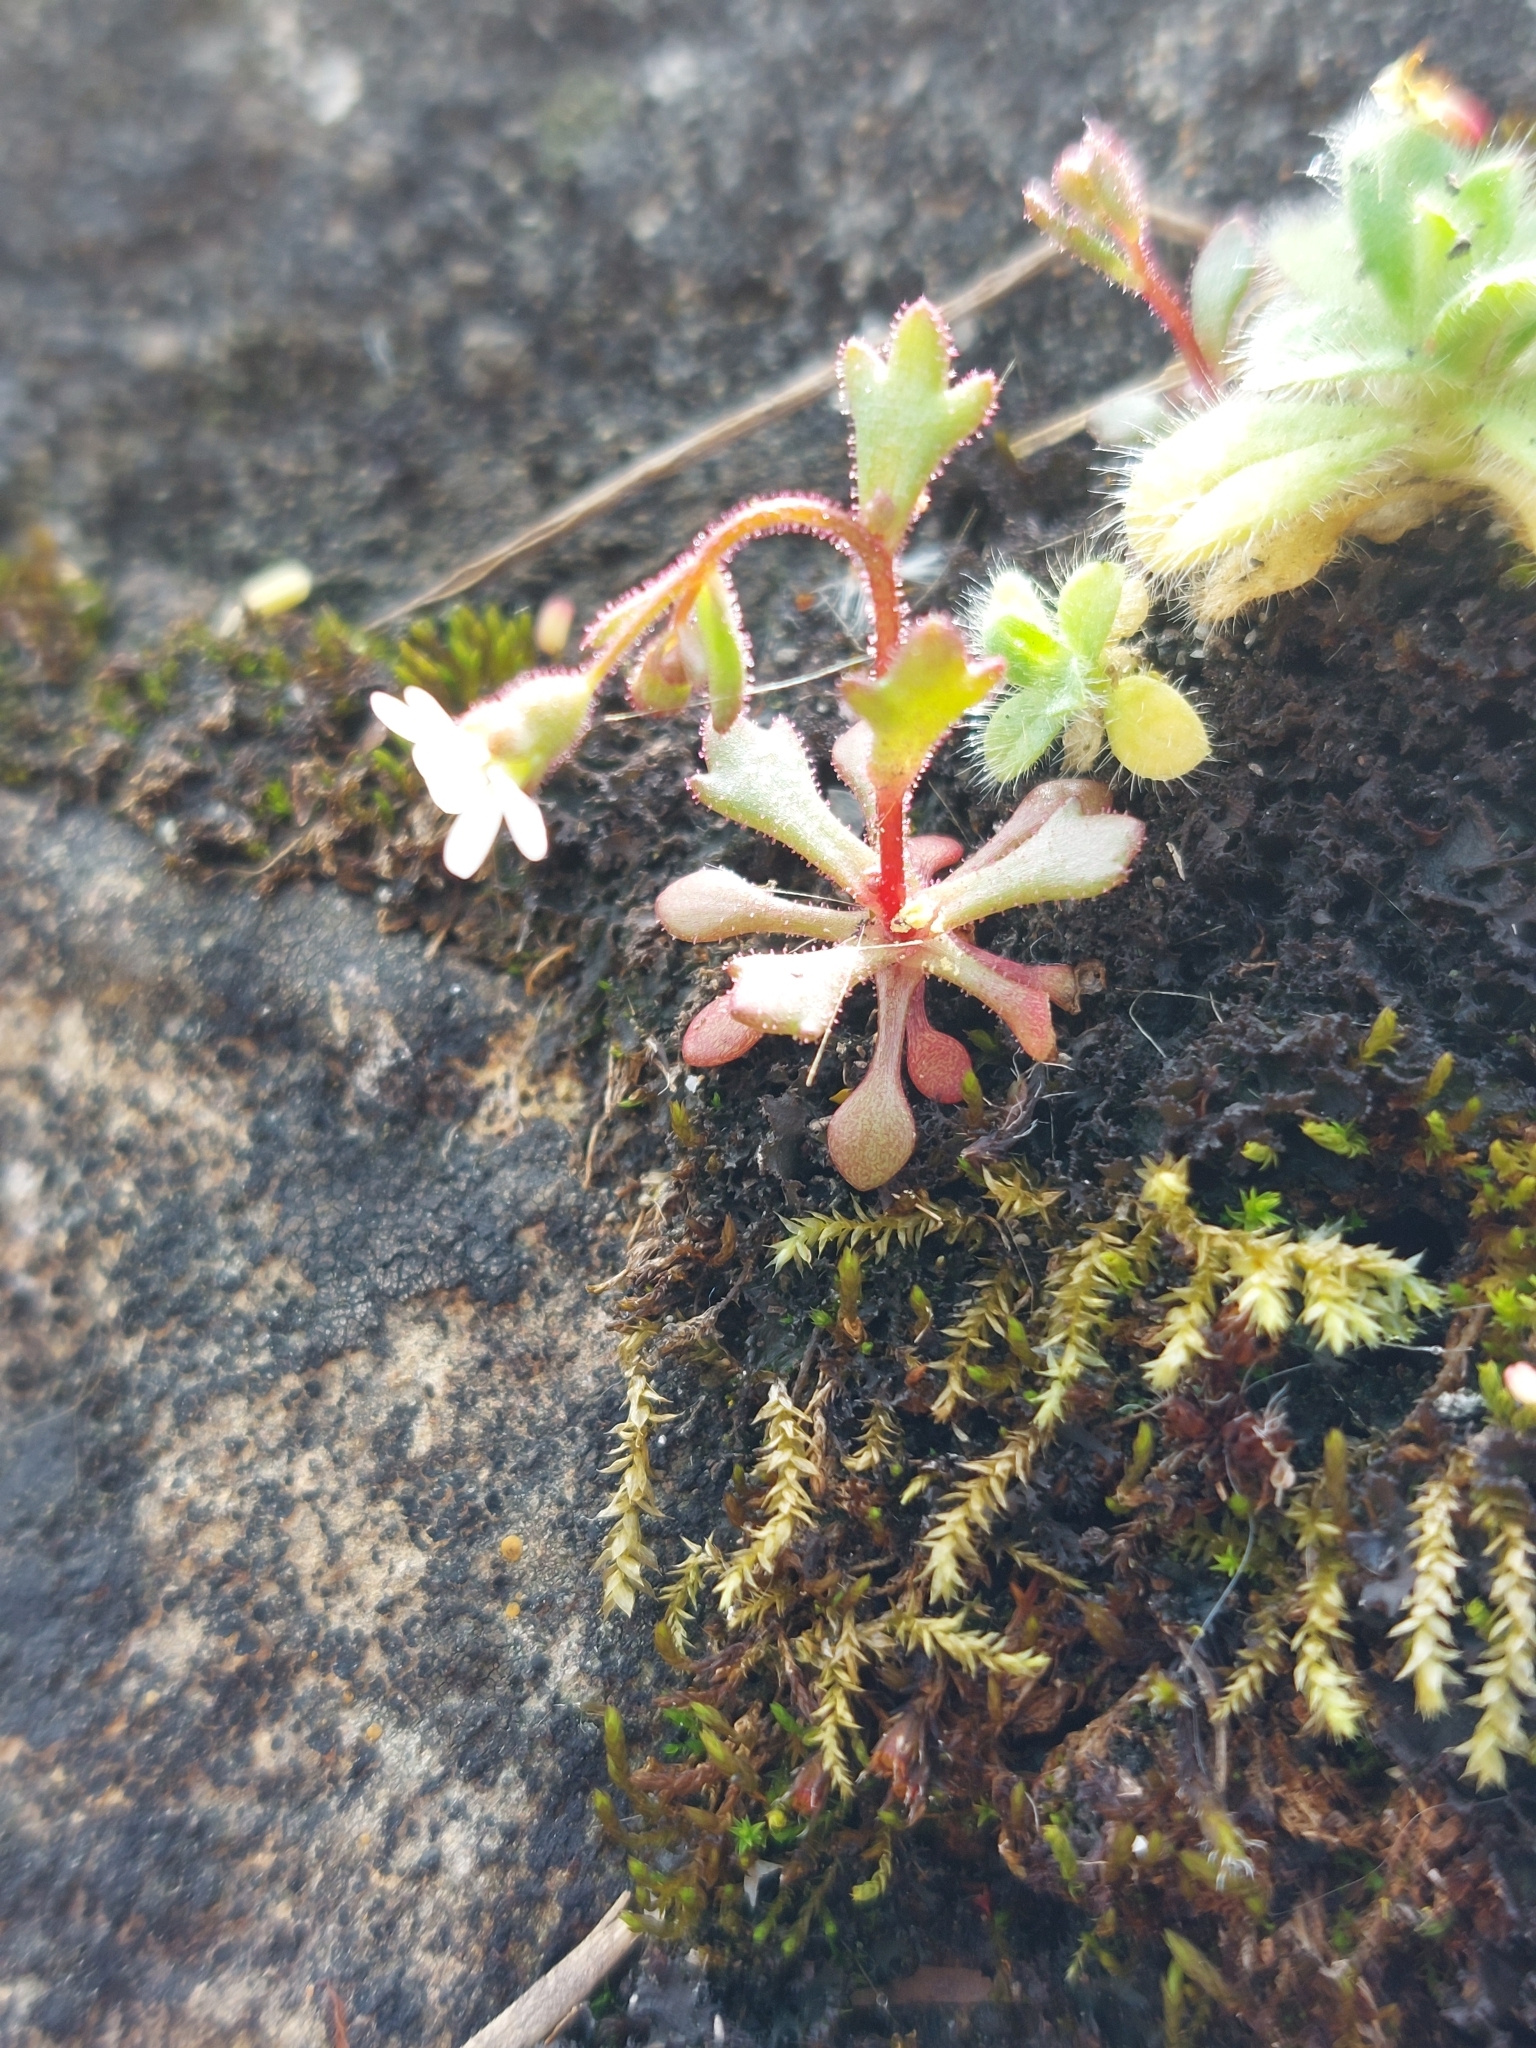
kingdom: Plantae
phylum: Tracheophyta
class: Magnoliopsida
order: Saxifragales
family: Saxifragaceae
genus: Saxifraga
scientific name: Saxifraga tridactylites
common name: Rue-leaved saxifrage
